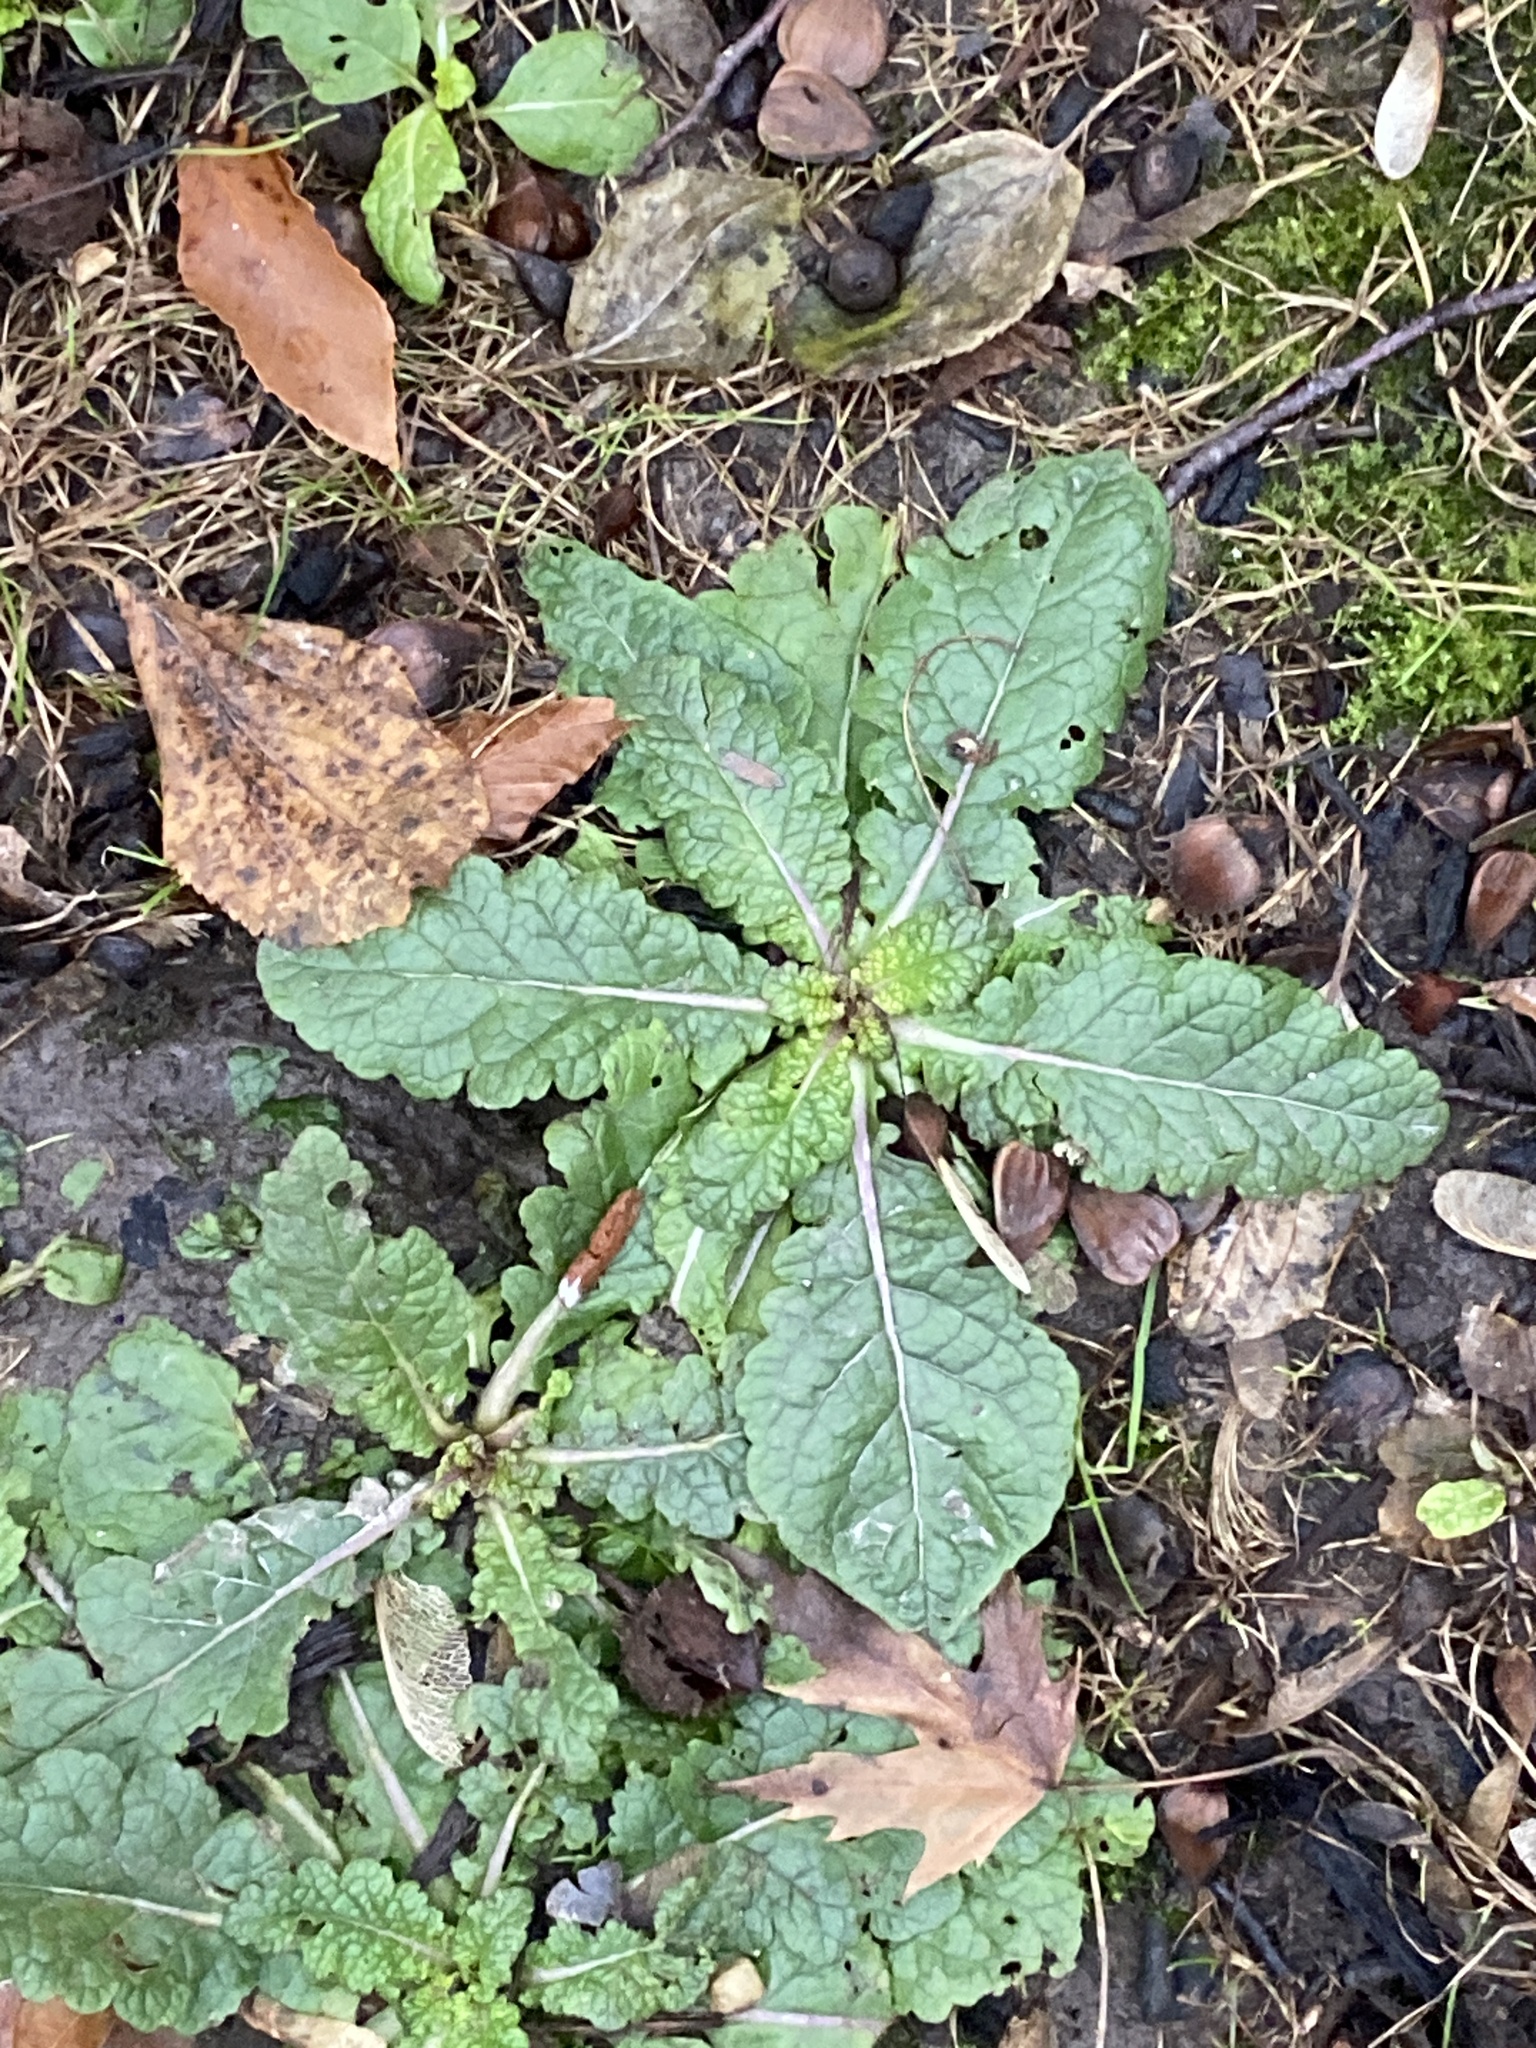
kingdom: Plantae
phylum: Tracheophyta
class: Magnoliopsida
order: Lamiales
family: Scrophulariaceae
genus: Verbascum
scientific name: Verbascum blattaria
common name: Moth mullein
